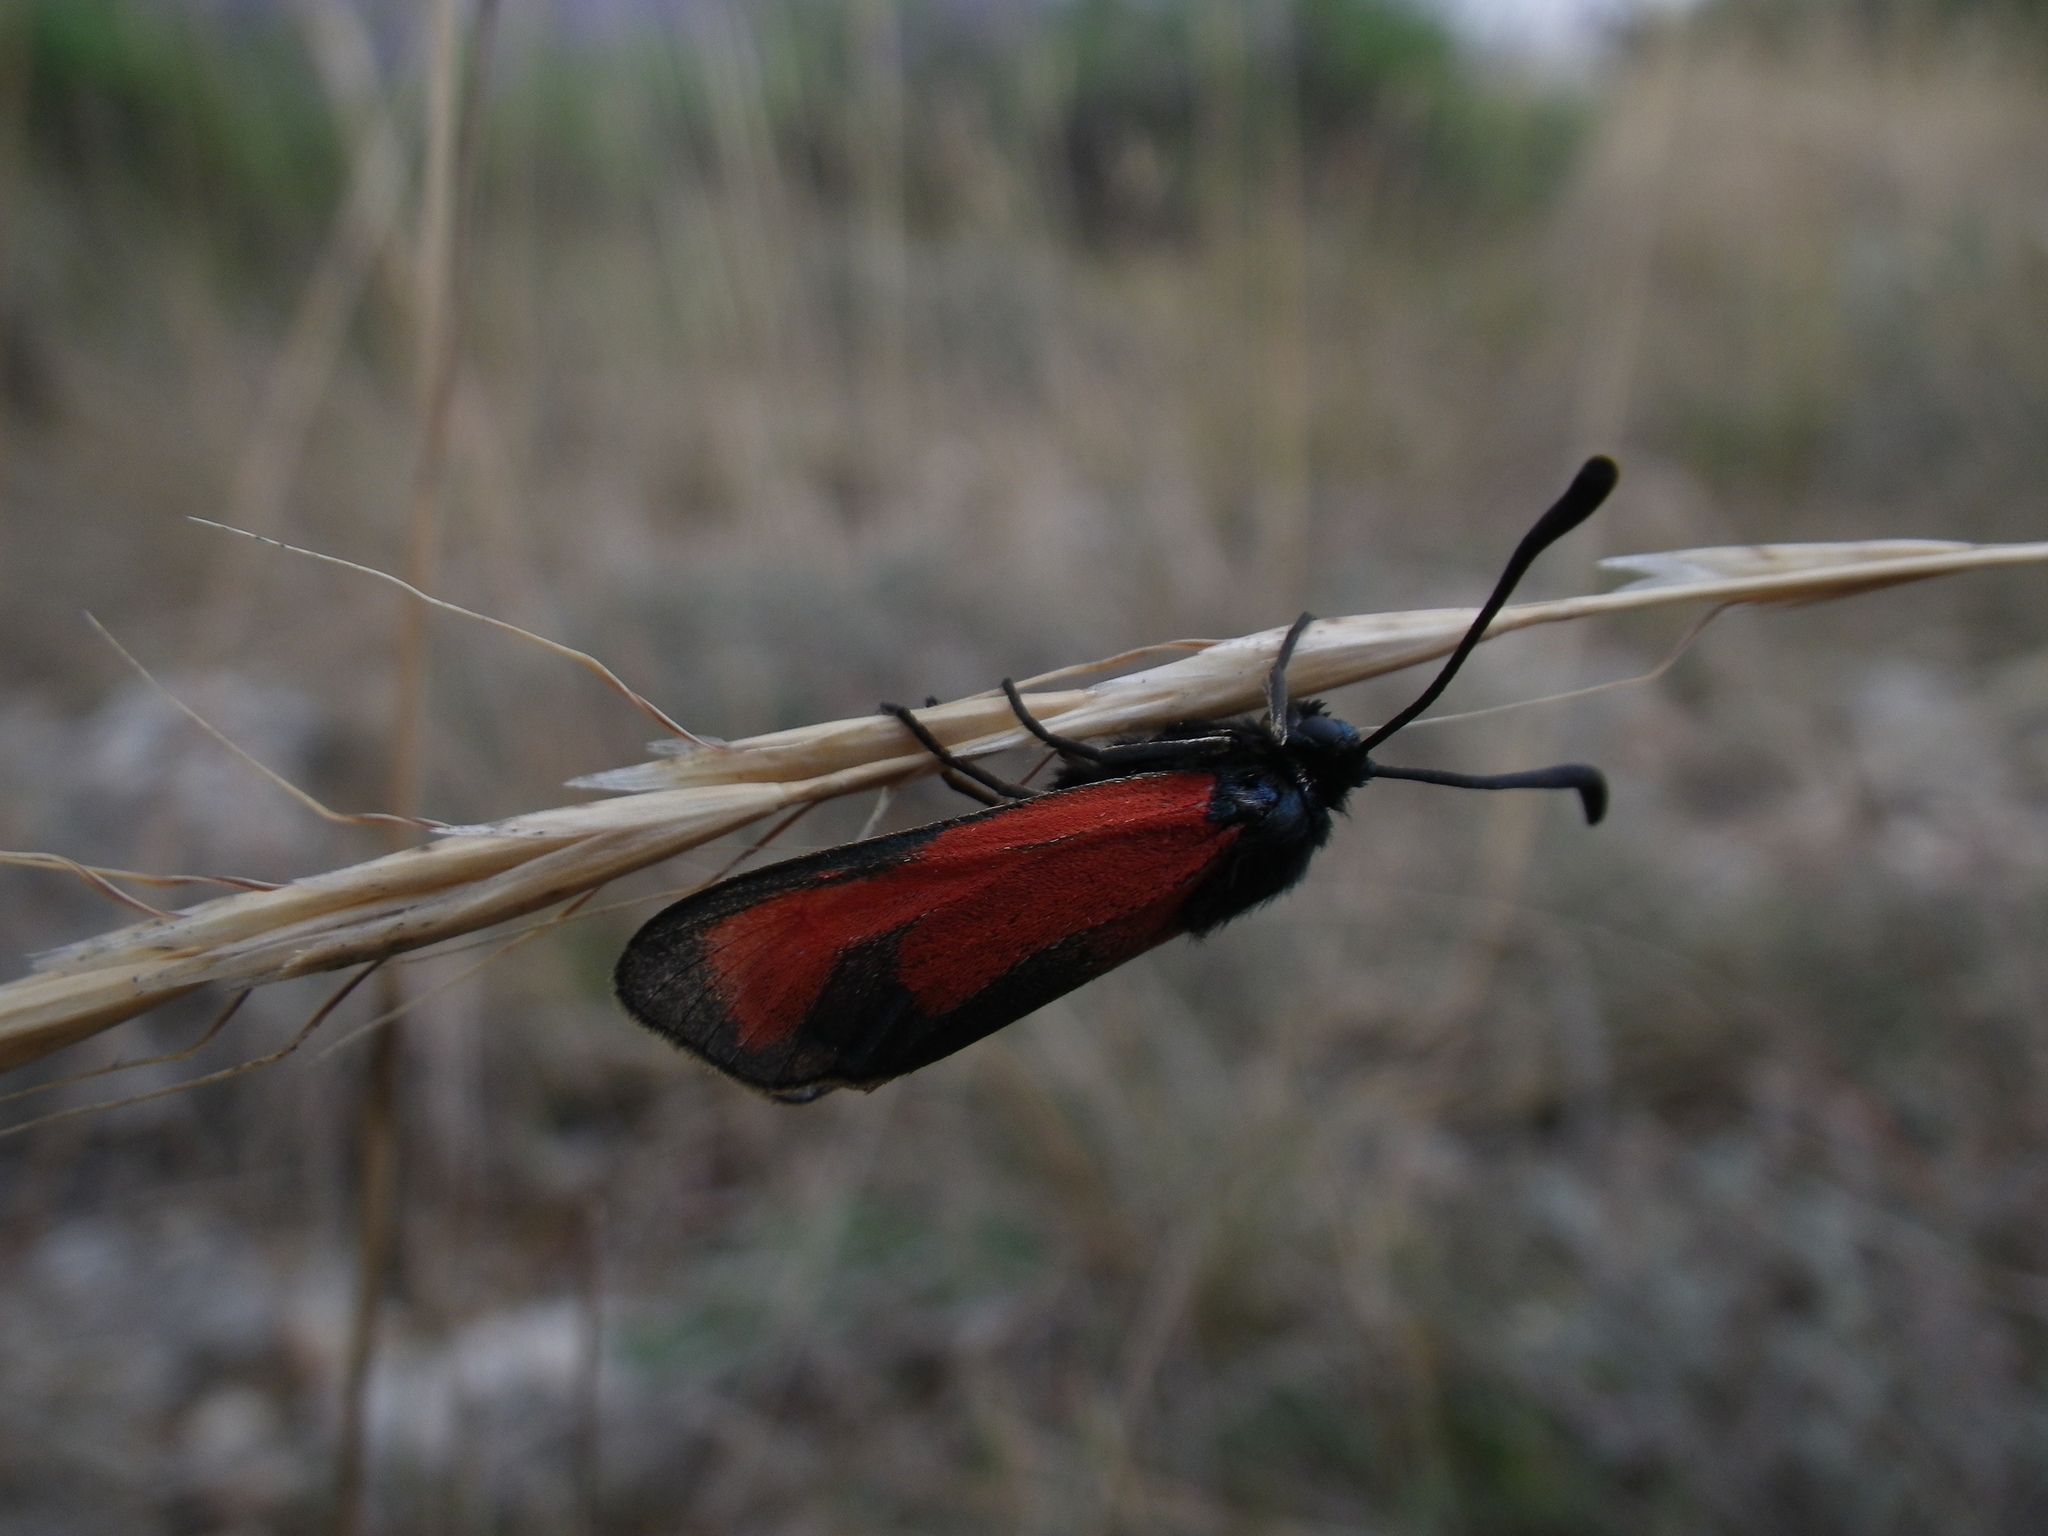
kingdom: Animalia
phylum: Arthropoda
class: Insecta
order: Lepidoptera
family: Zygaenidae
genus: Zygaena
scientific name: Zygaena erythrus
